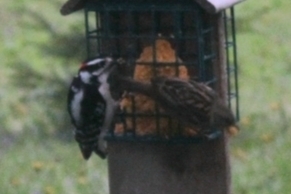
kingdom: Animalia
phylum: Chordata
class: Aves
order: Piciformes
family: Picidae
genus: Dryobates
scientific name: Dryobates pubescens
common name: Downy woodpecker
